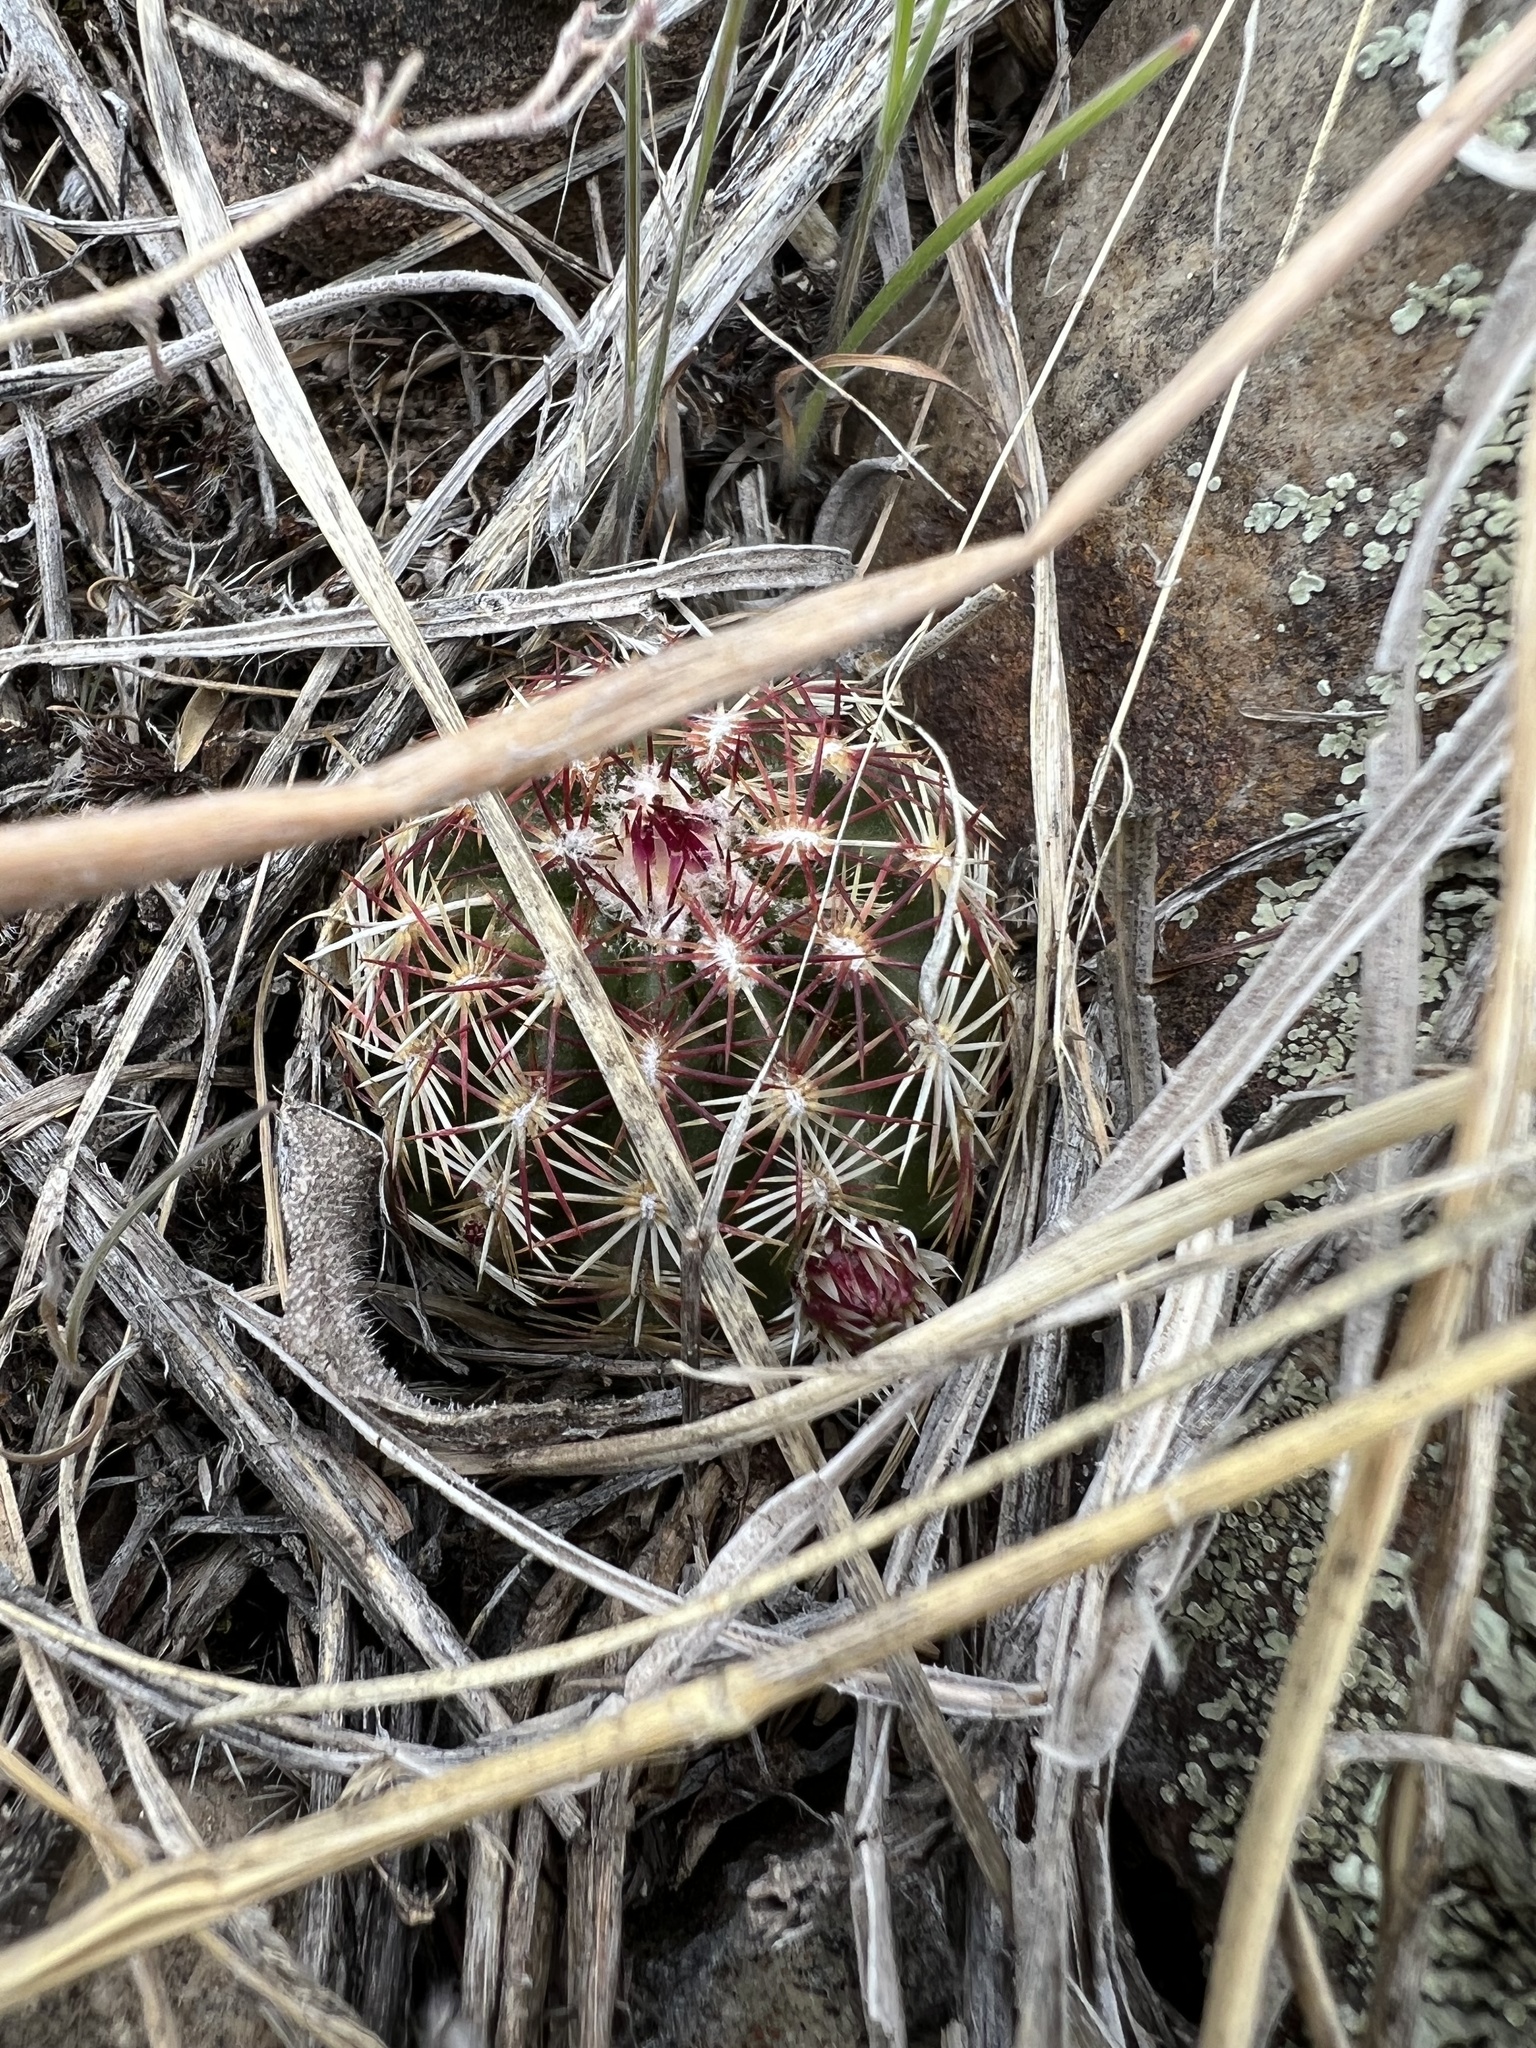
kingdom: Plantae
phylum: Tracheophyta
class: Magnoliopsida
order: Caryophyllales
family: Cactaceae
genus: Echinocereus
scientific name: Echinocereus viridiflorus
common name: Nylon hedgehog cactus
